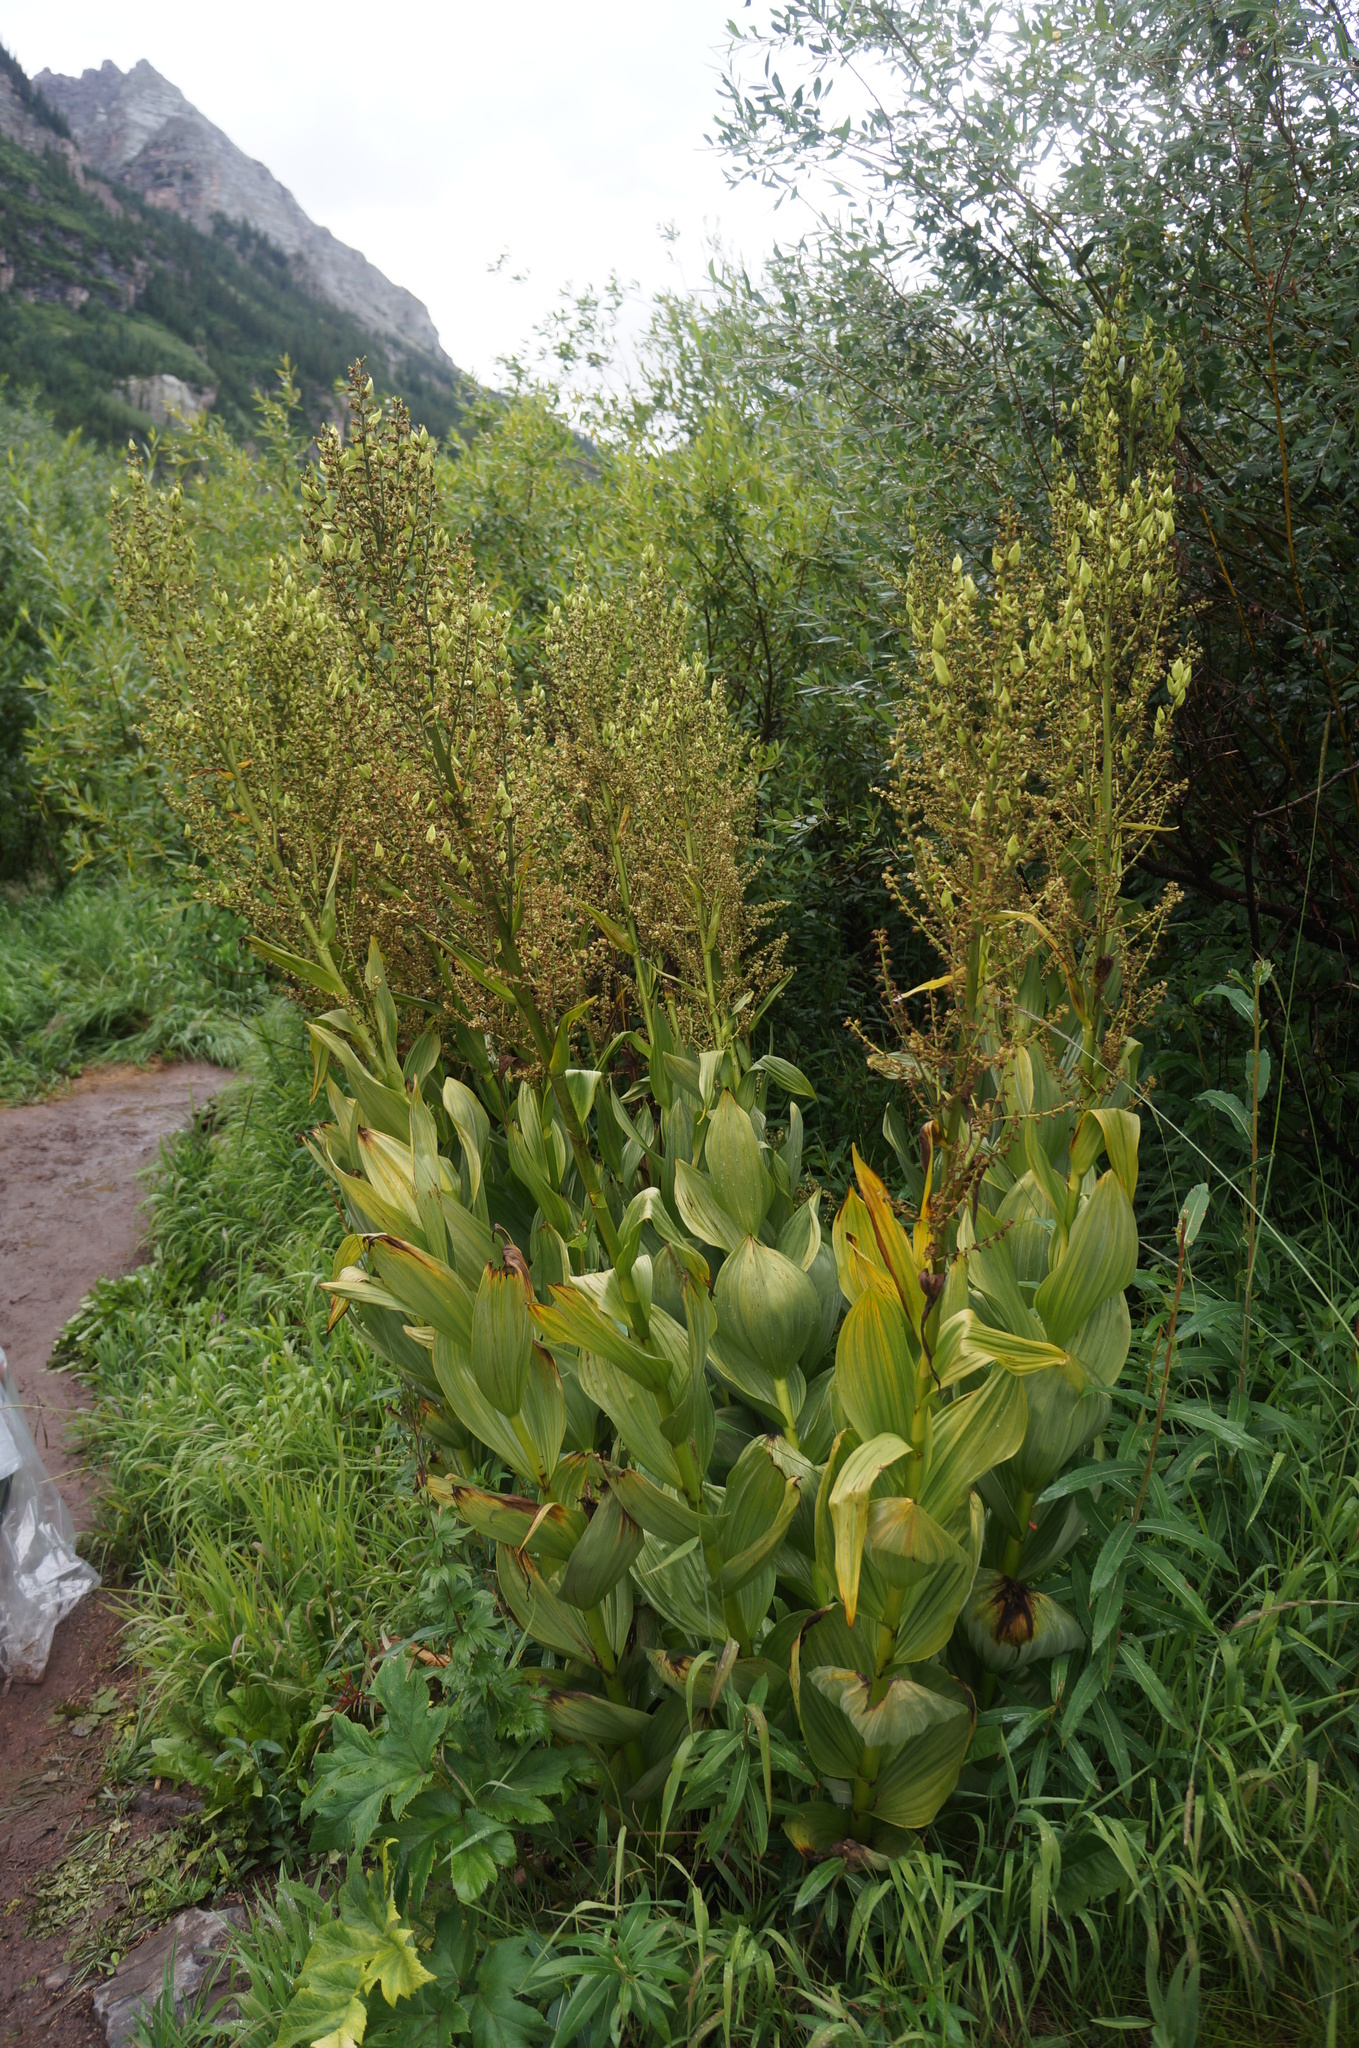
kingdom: Plantae
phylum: Tracheophyta
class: Liliopsida
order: Liliales
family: Melanthiaceae
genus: Veratrum
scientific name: Veratrum californicum
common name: California veratrum
